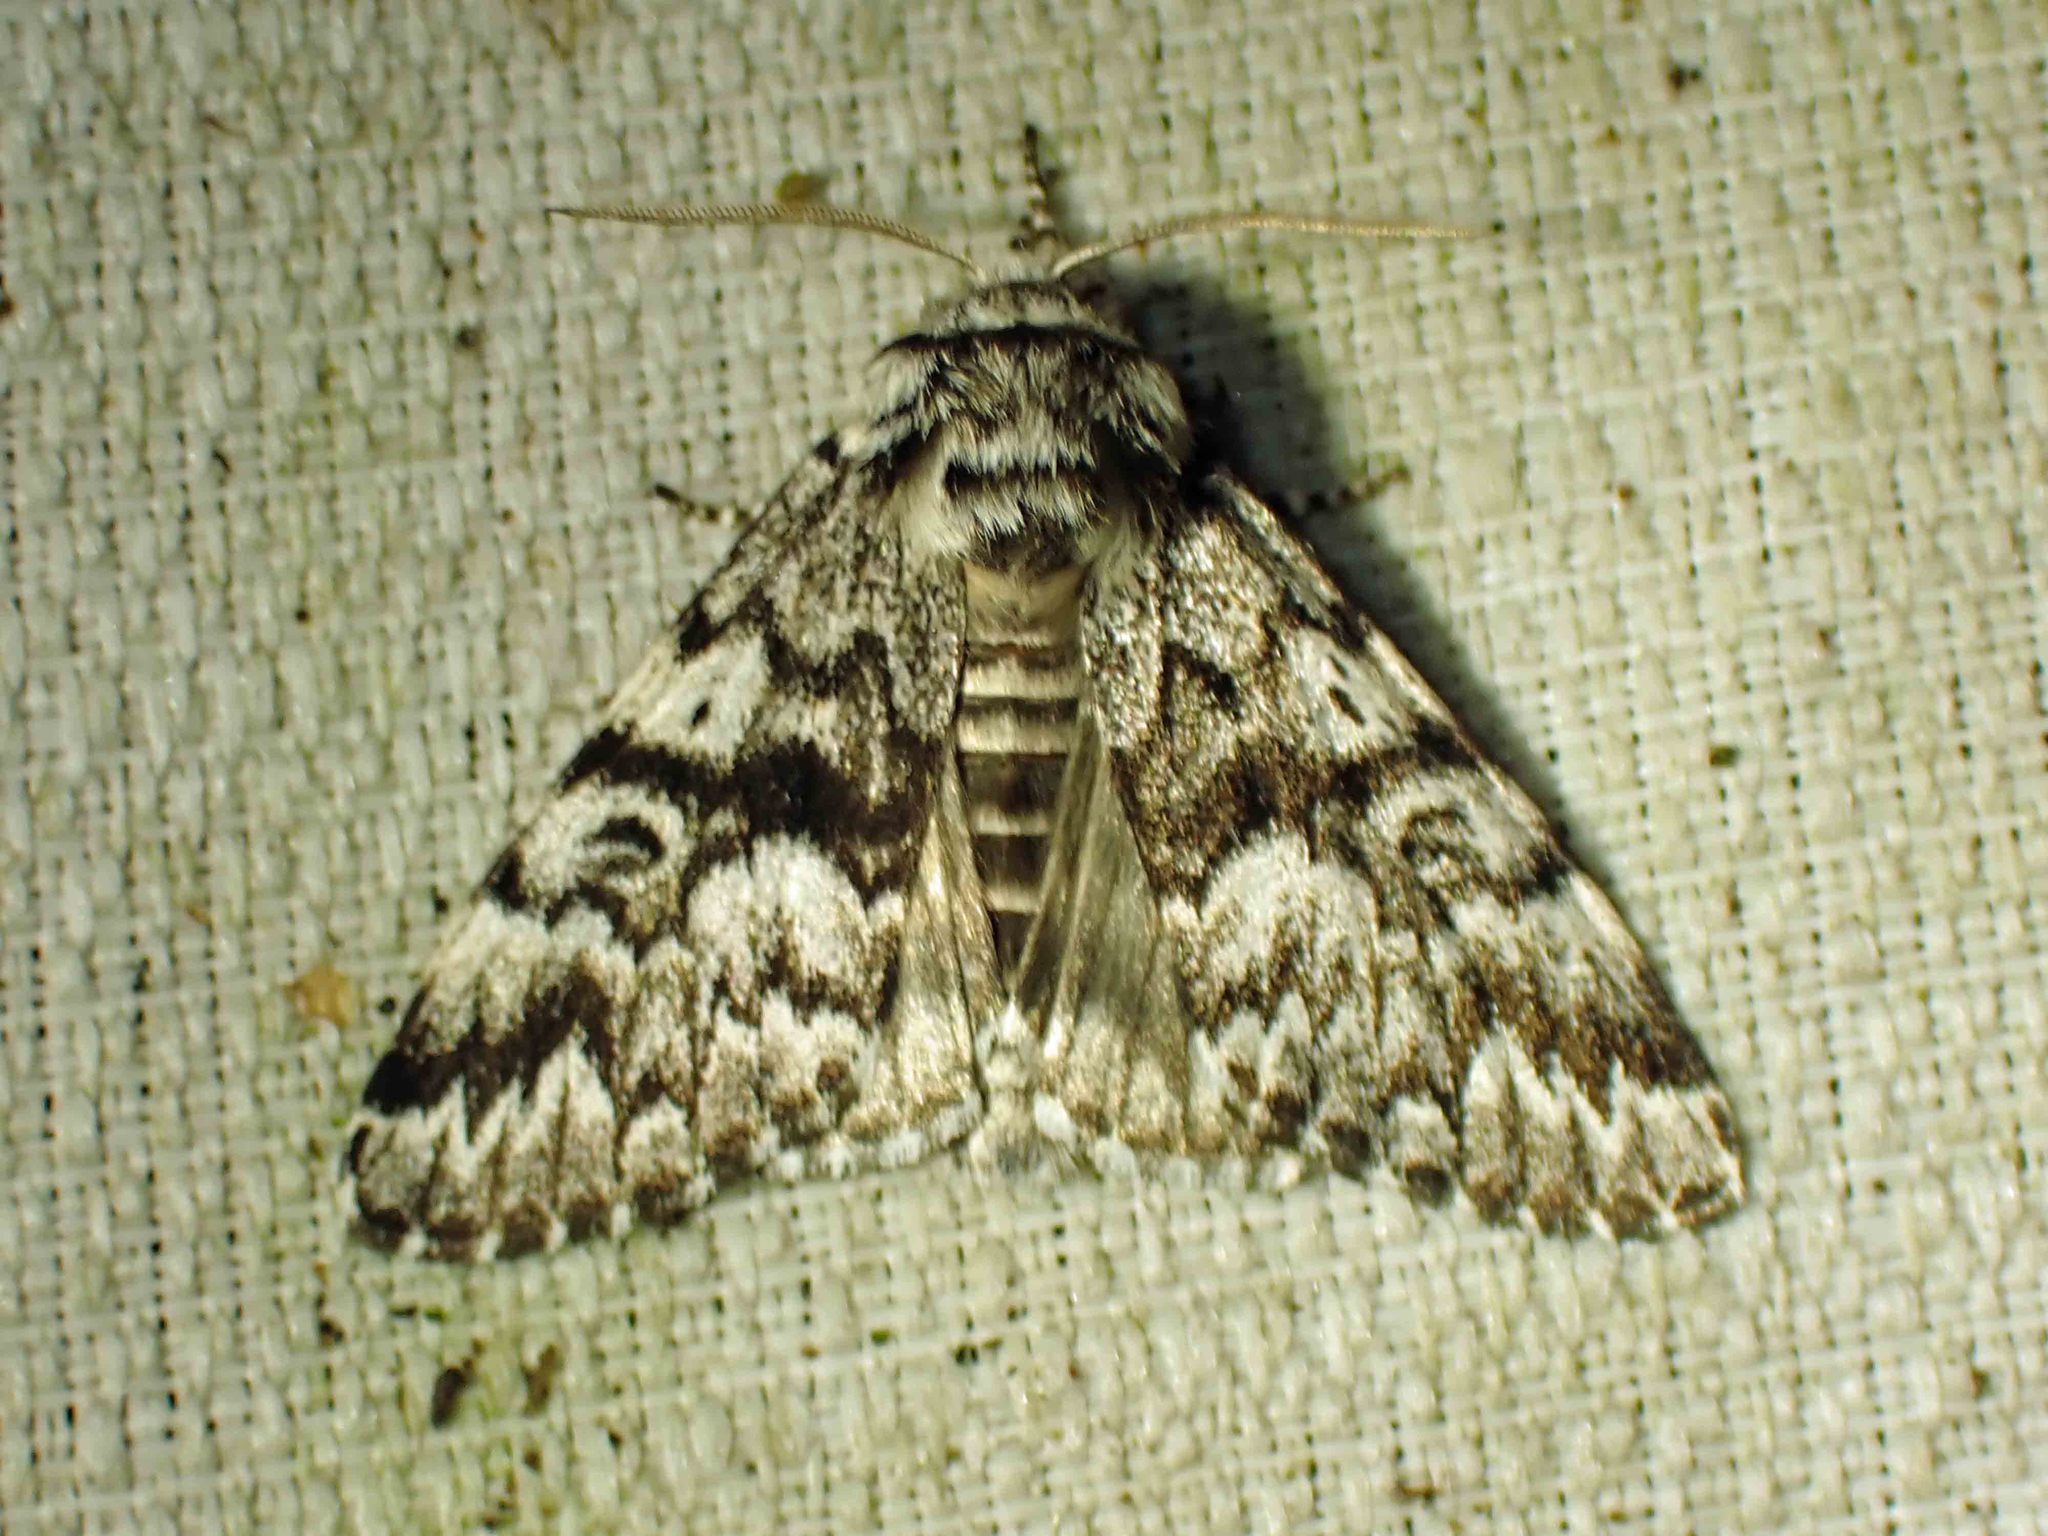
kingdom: Animalia
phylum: Arthropoda
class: Insecta
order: Lepidoptera
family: Noctuidae
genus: Panthea
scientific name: Panthea acronyctoides
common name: Black zigzag moth
